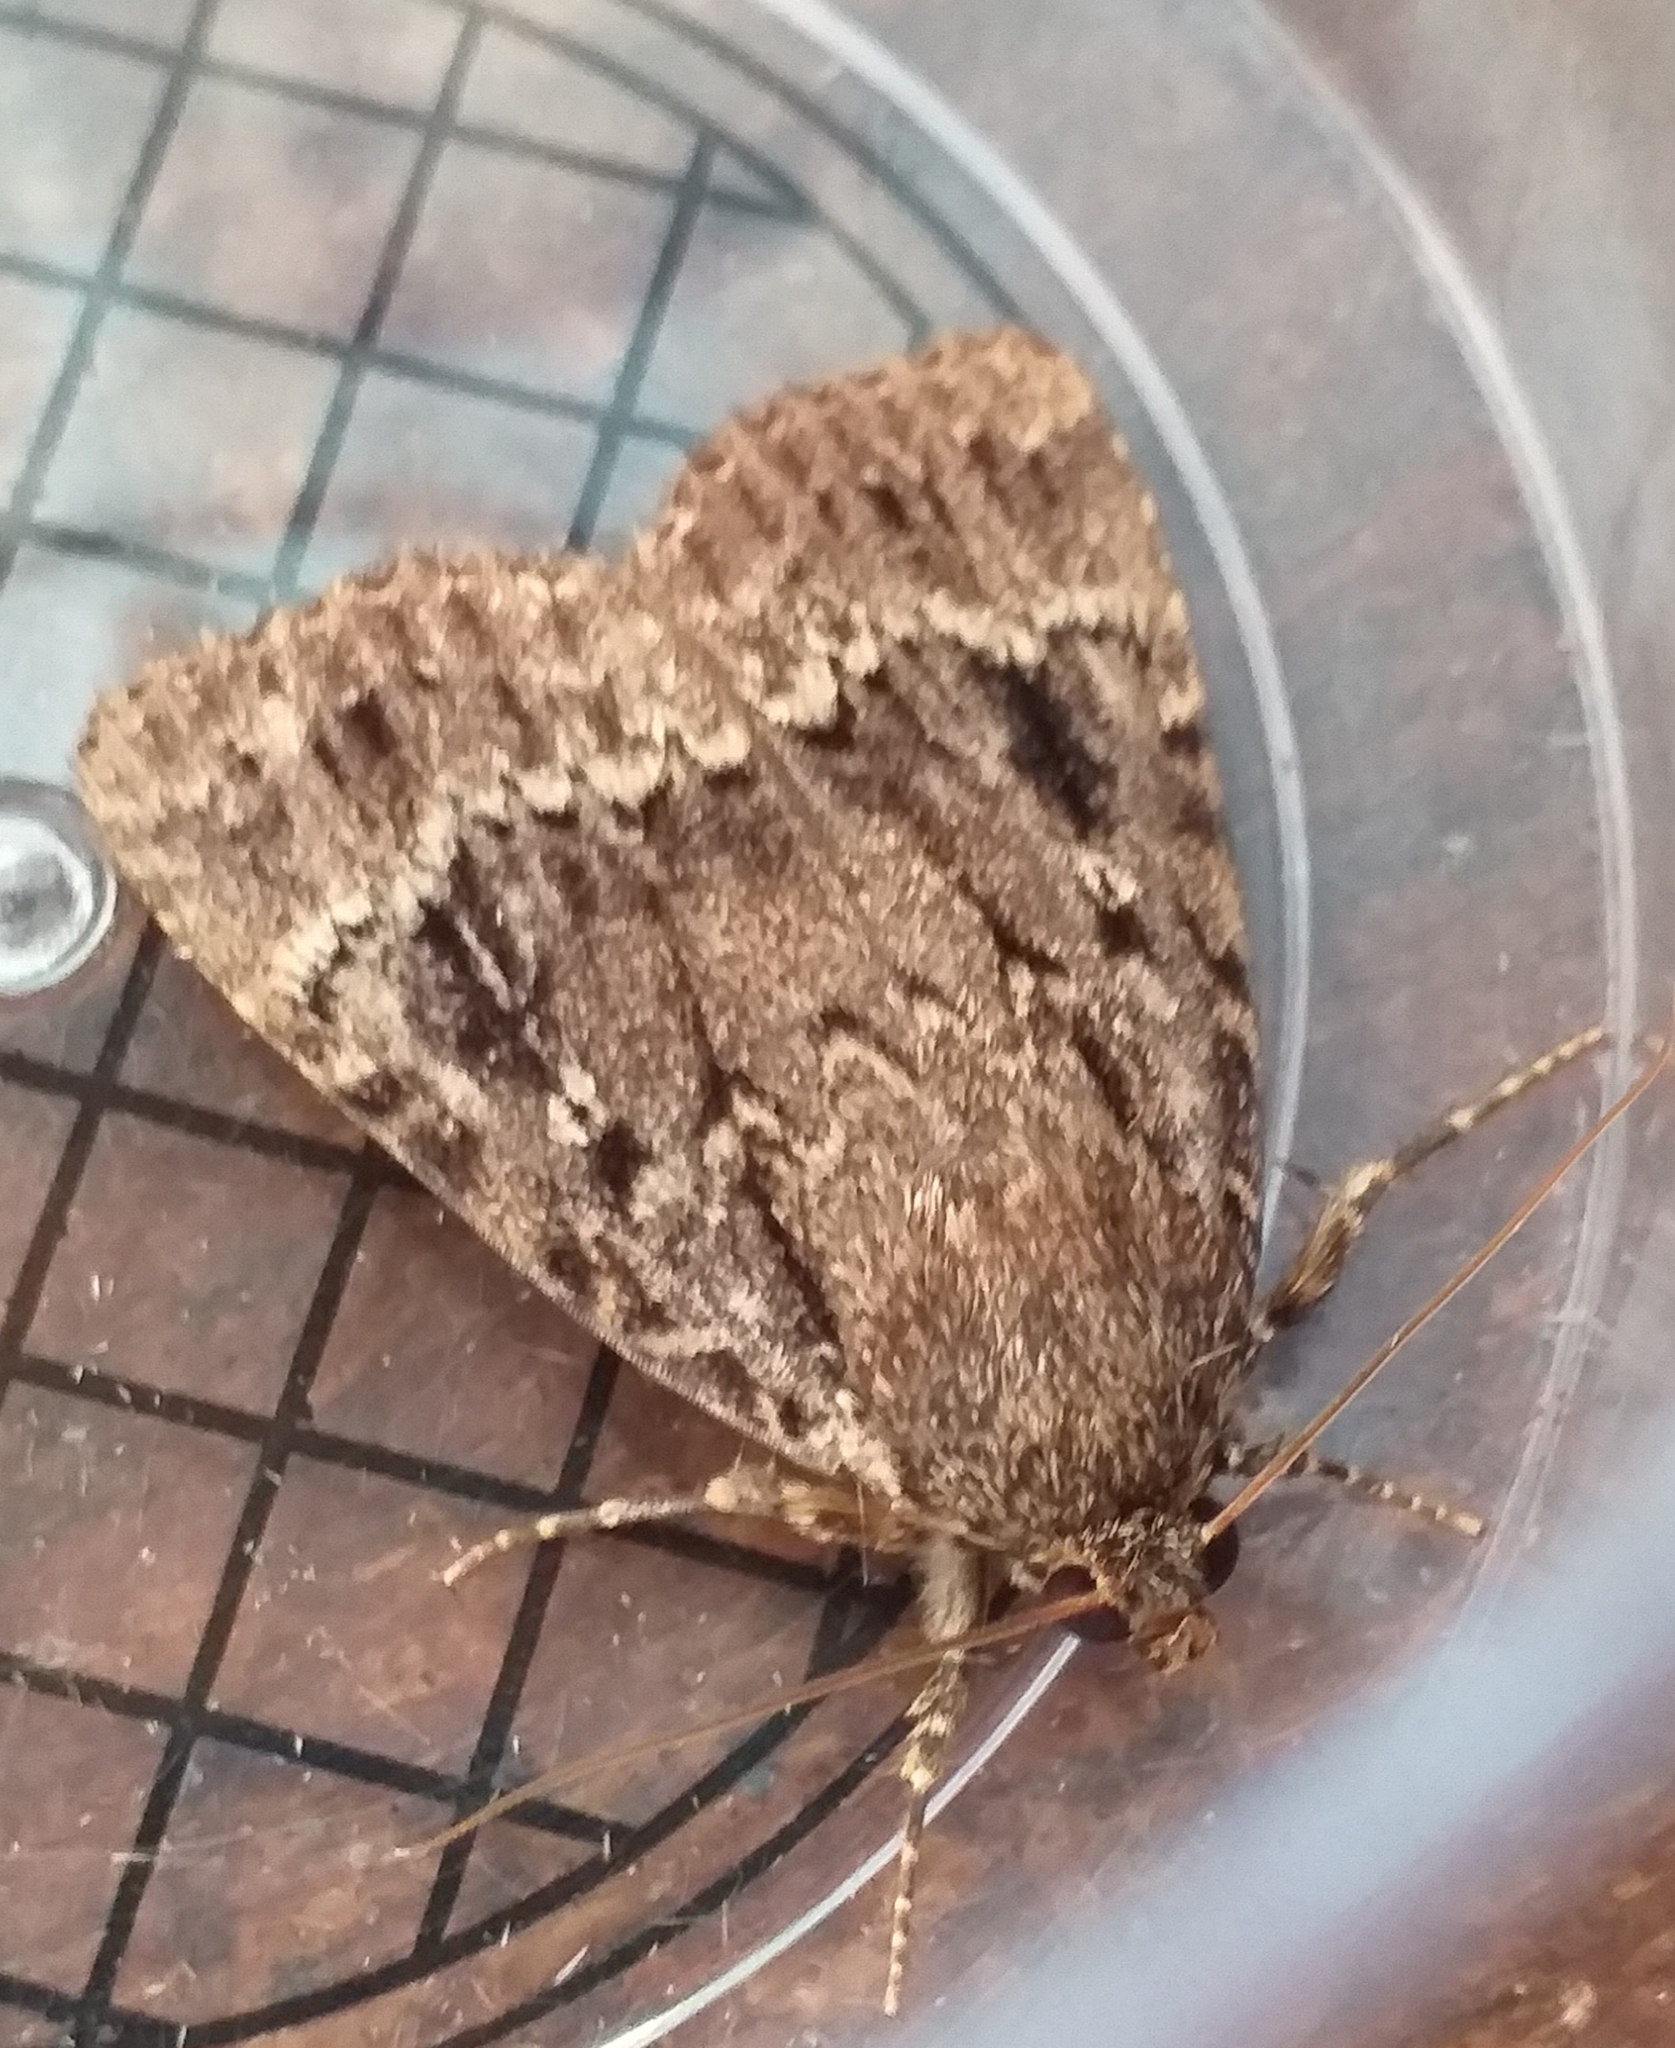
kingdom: Animalia
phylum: Arthropoda
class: Insecta
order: Lepidoptera
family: Noctuidae
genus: Amphipyra
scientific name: Amphipyra pyramidea
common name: Copper underwing
